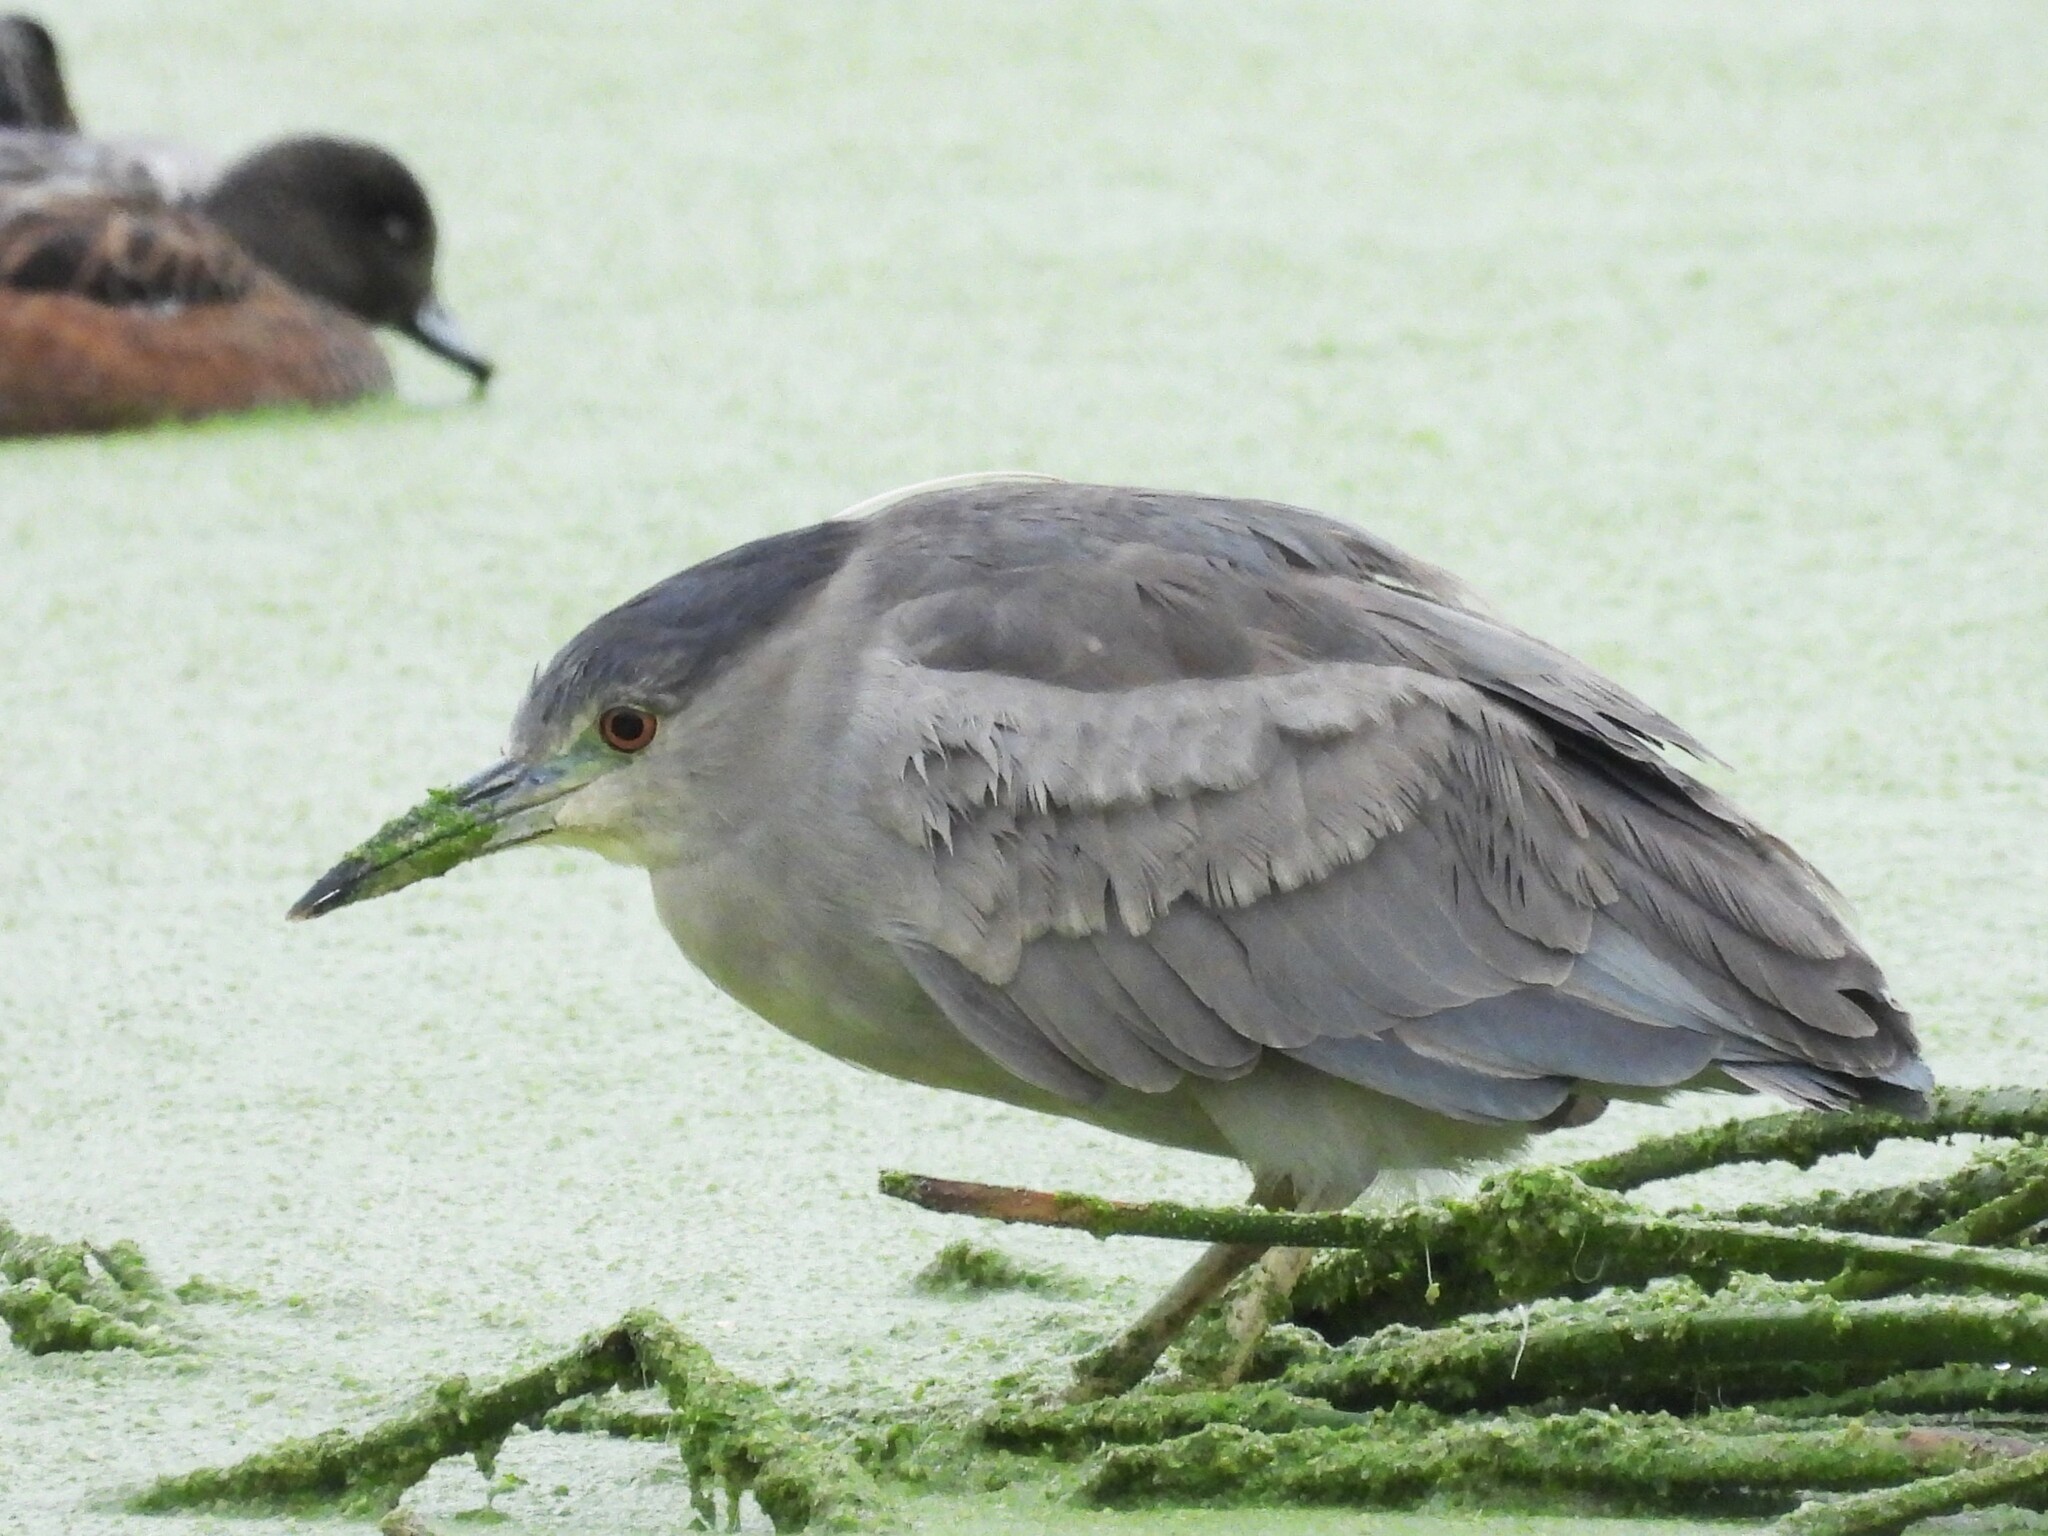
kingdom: Animalia
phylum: Chordata
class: Aves
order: Pelecaniformes
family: Ardeidae
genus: Nycticorax
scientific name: Nycticorax nycticorax
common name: Black-crowned night heron
